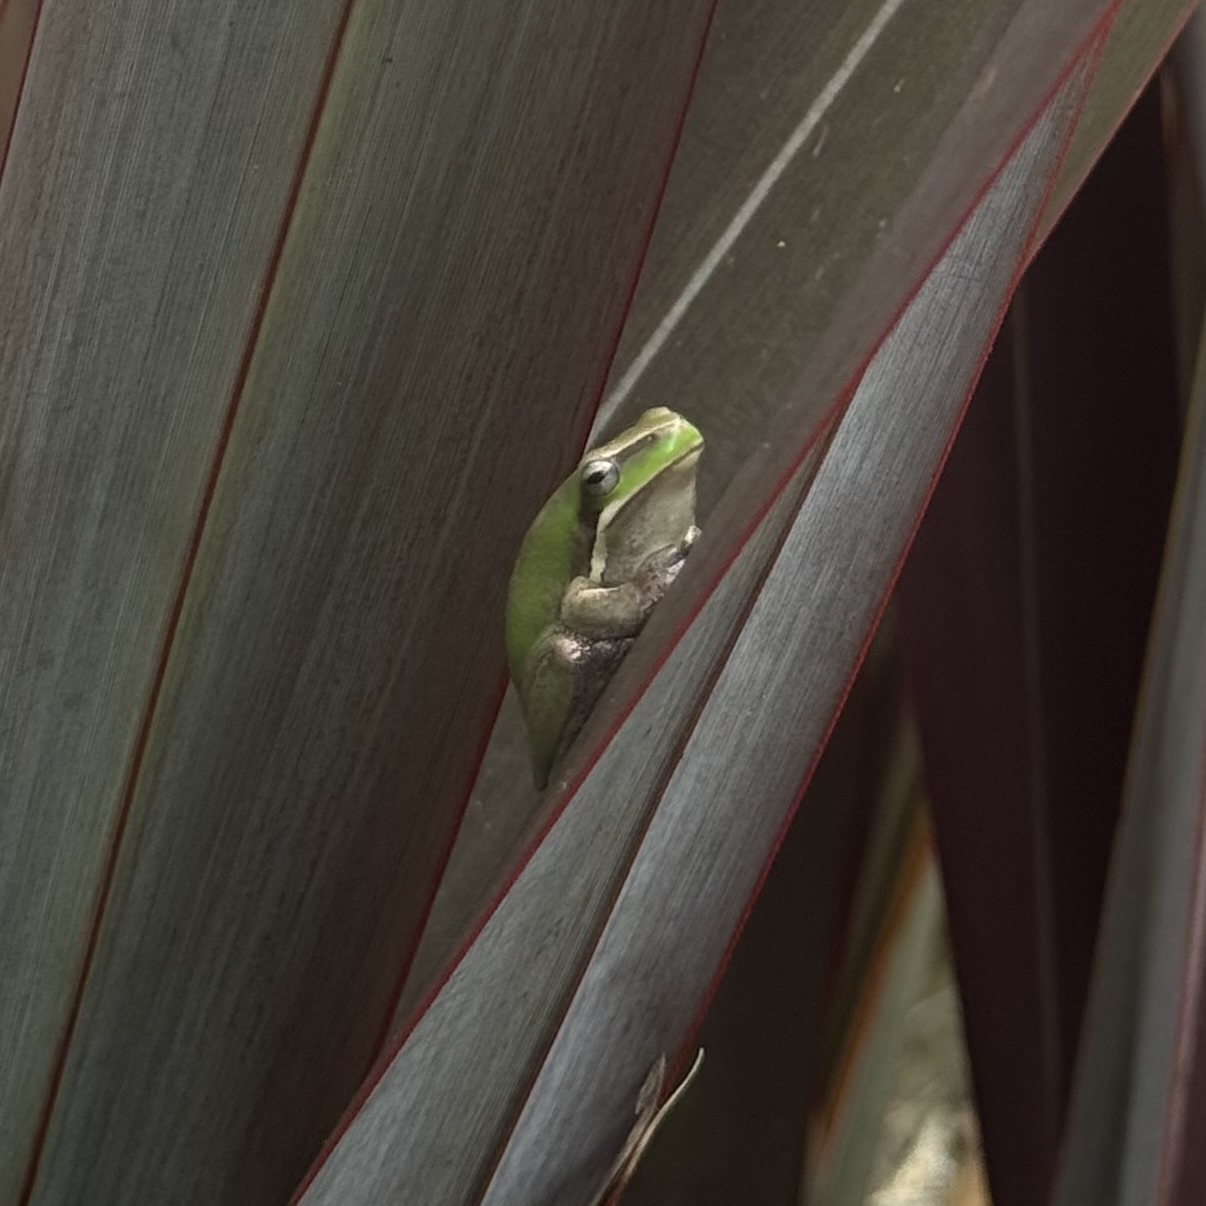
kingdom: Animalia
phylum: Chordata
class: Amphibia
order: Anura
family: Pelodryadidae
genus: Litoria
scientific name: Litoria fallax
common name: Eastern dwarf treefrog
